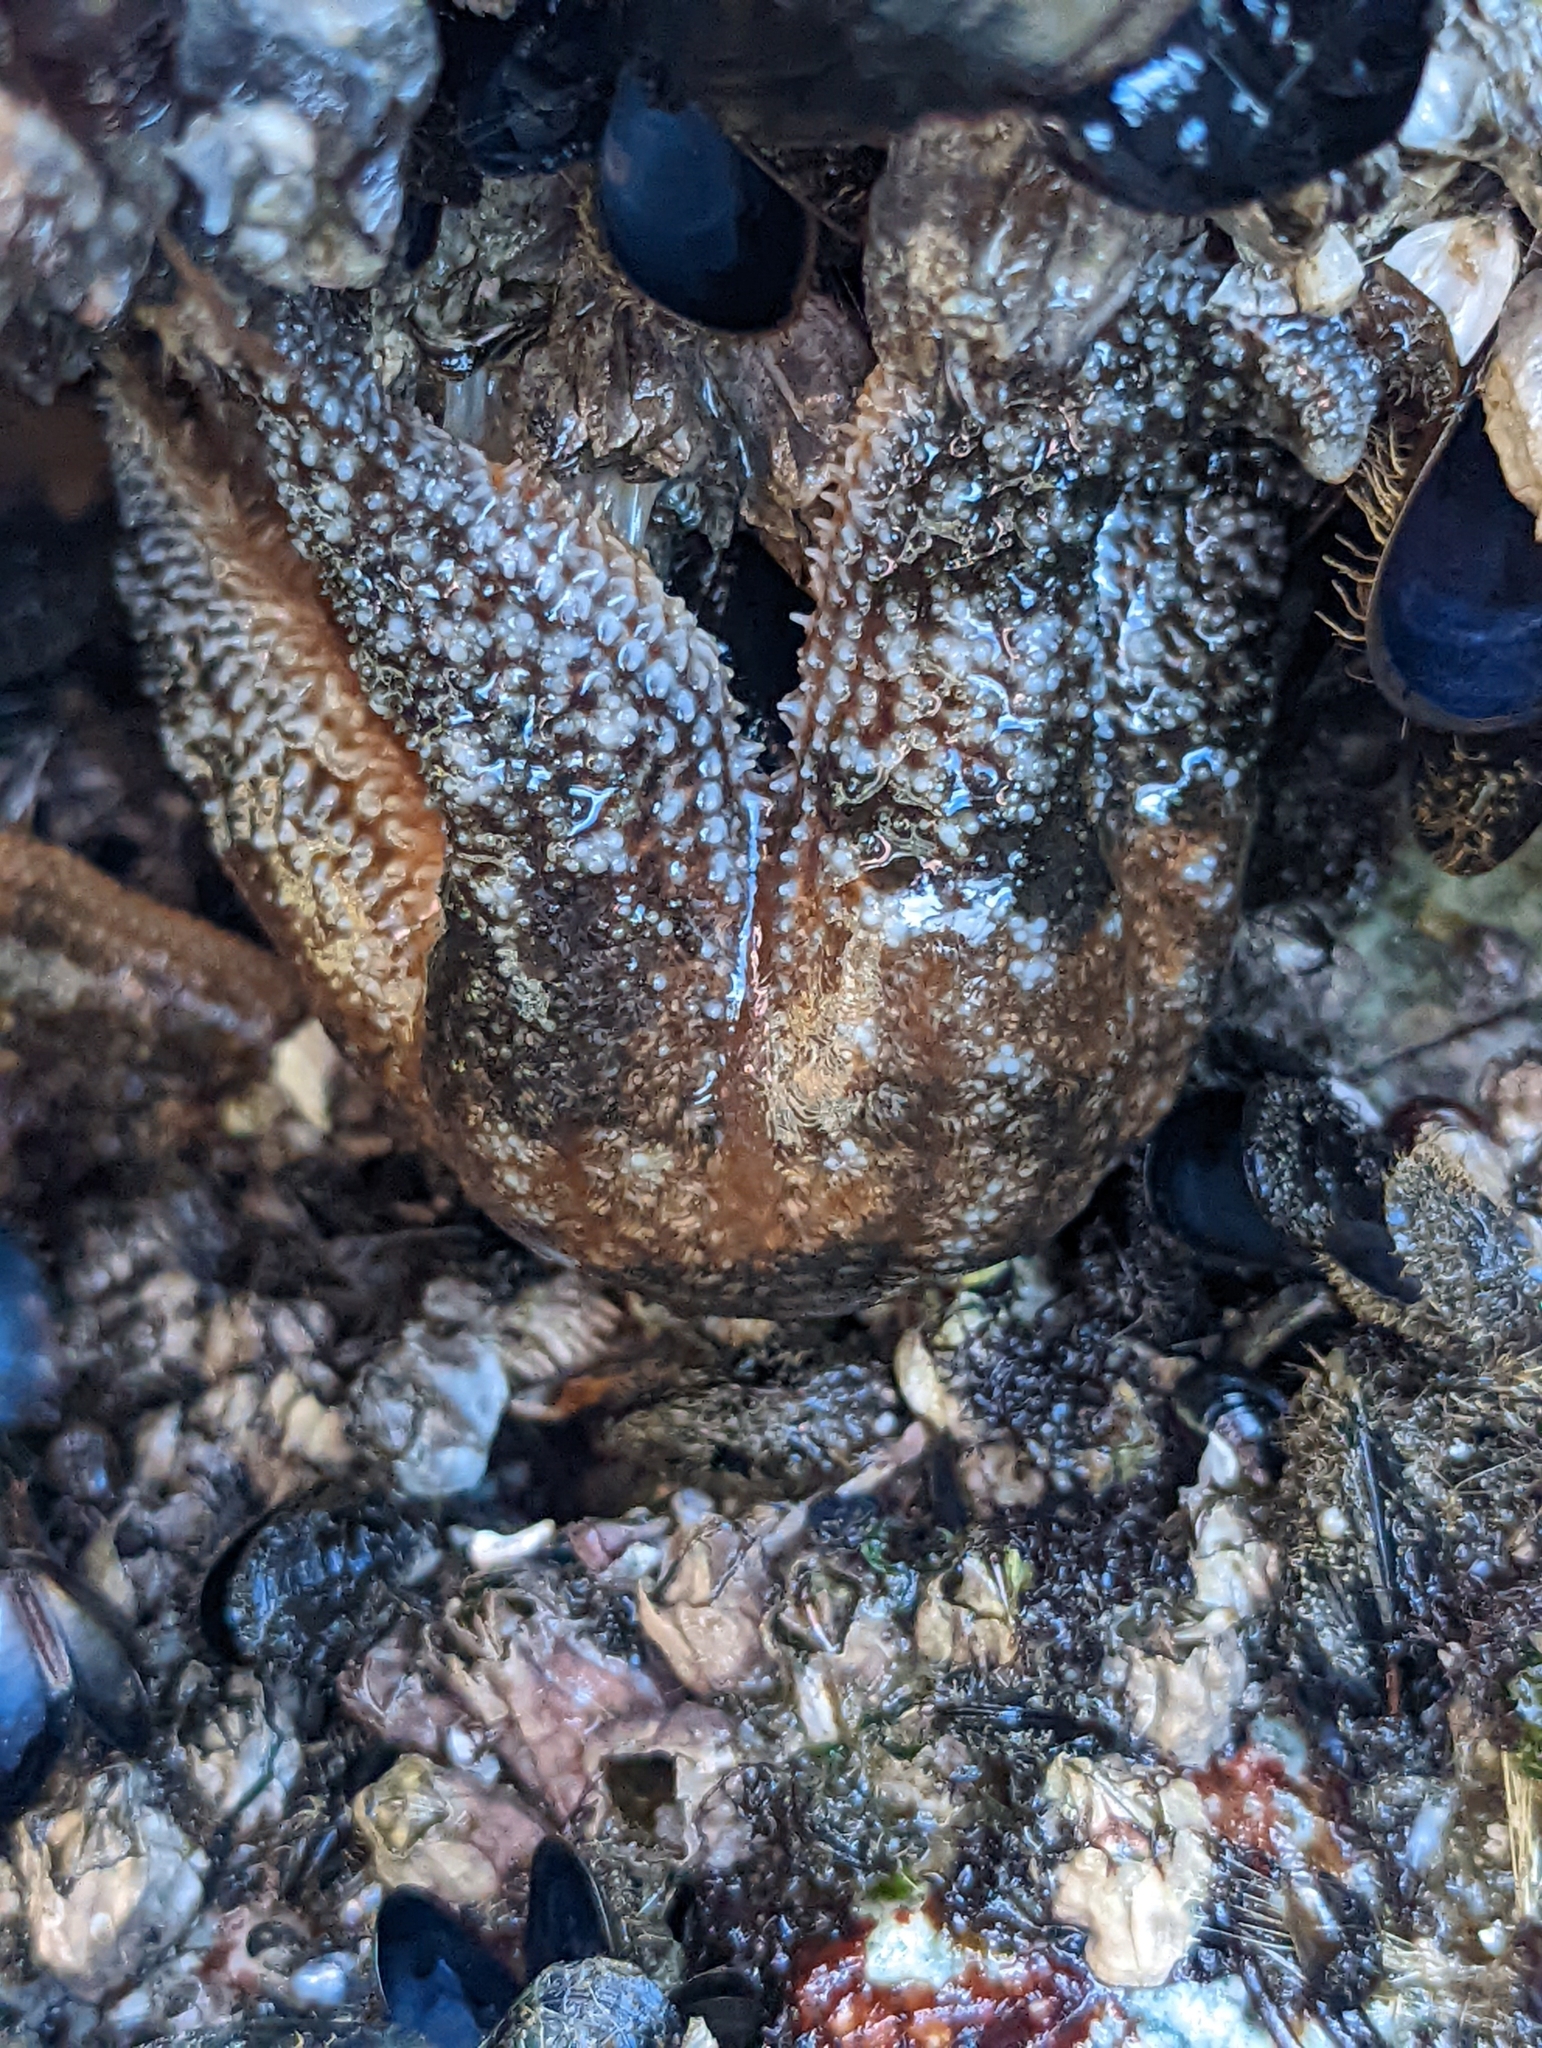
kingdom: Animalia
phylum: Echinodermata
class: Asteroidea
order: Forcipulatida
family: Asteriidae
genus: Evasterias
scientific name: Evasterias troschelii
